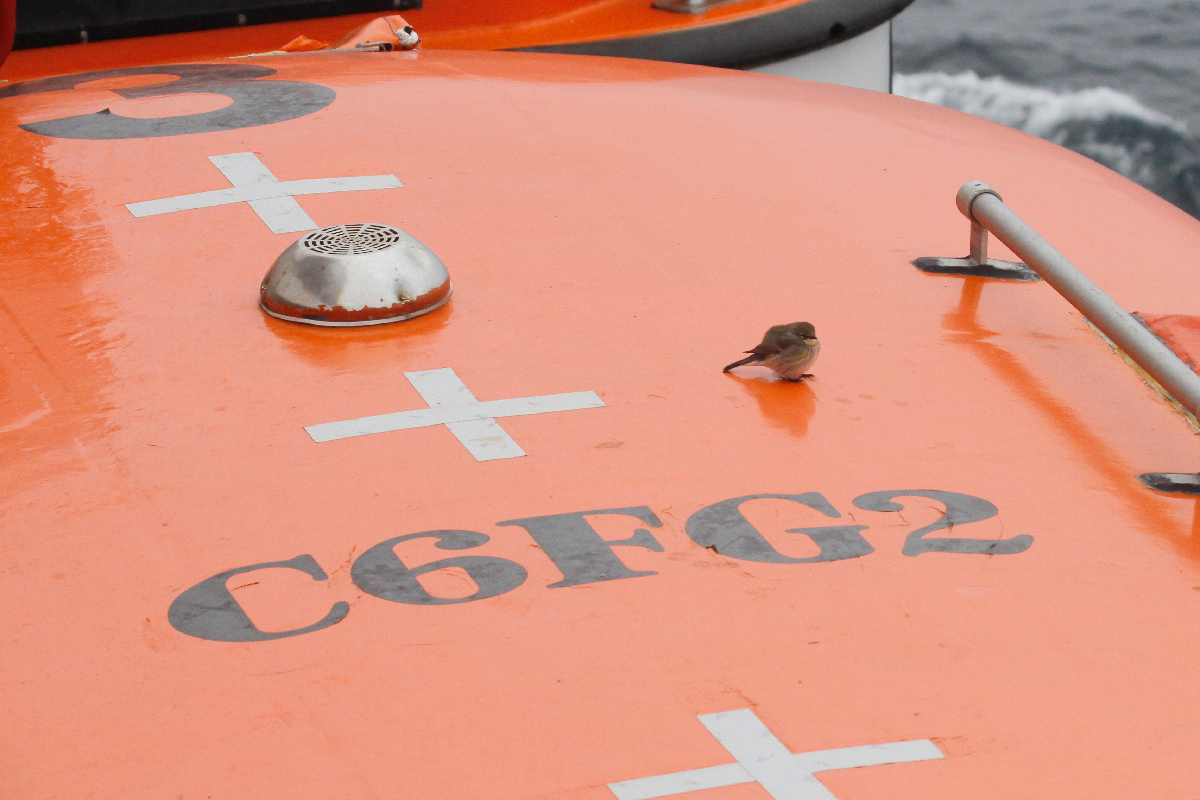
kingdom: Animalia
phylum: Chordata
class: Aves
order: Passeriformes
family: Parulidae
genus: Setophaga
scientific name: Setophaga coronata
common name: Myrtle warbler
